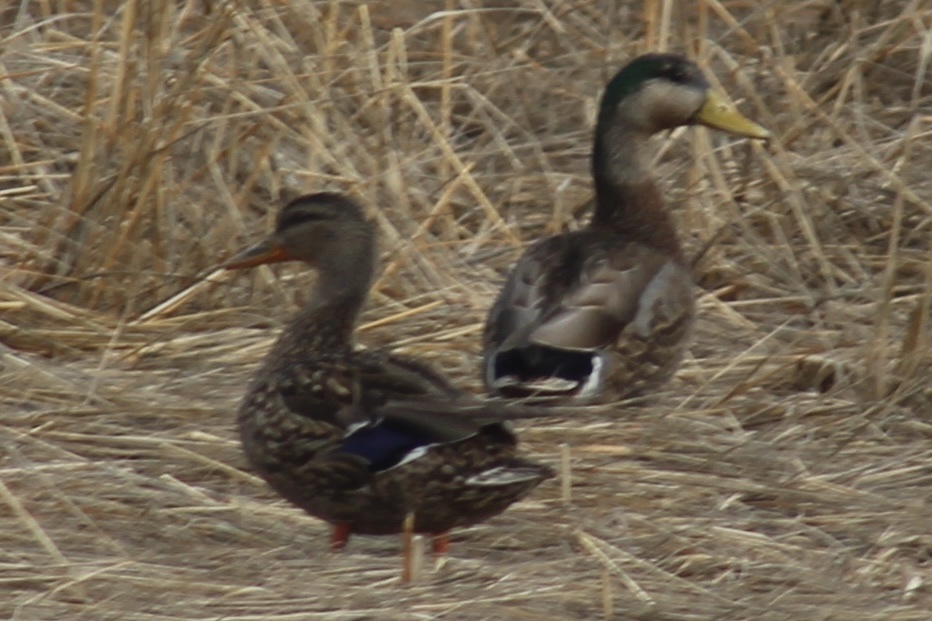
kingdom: Animalia
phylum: Chordata
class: Aves
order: Anseriformes
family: Anatidae
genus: Anas
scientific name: Anas
